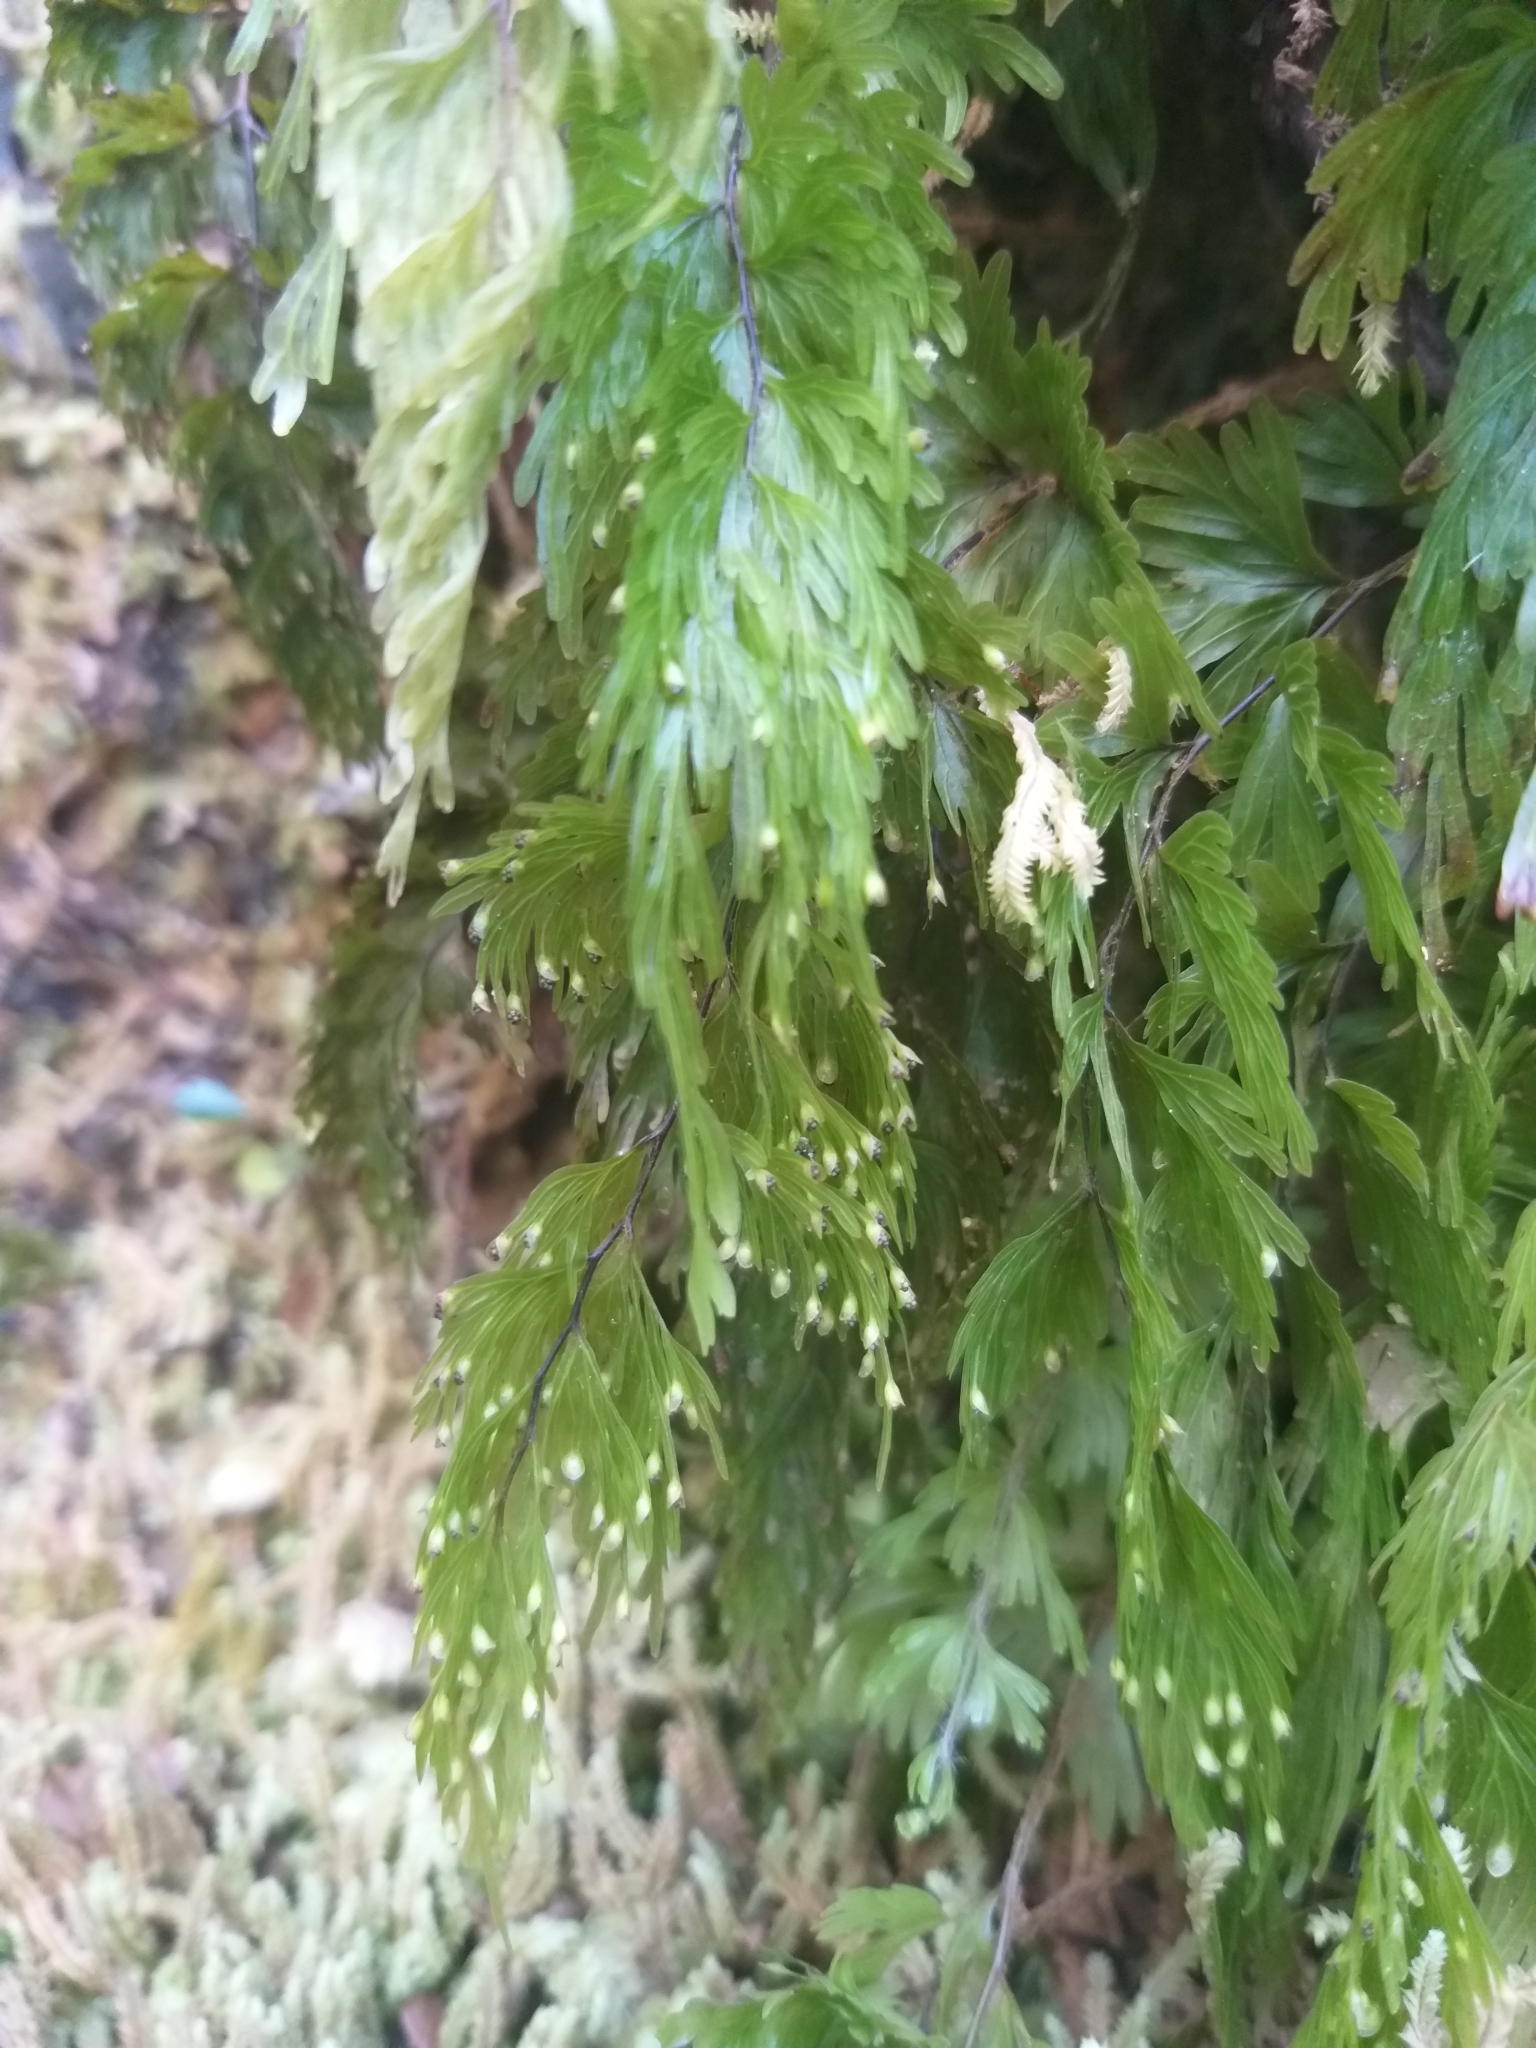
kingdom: Plantae
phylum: Tracheophyta
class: Polypodiopsida
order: Hymenophyllales
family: Hymenophyllaceae
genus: Hymenophyllum
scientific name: Hymenophyllum flabellatum
